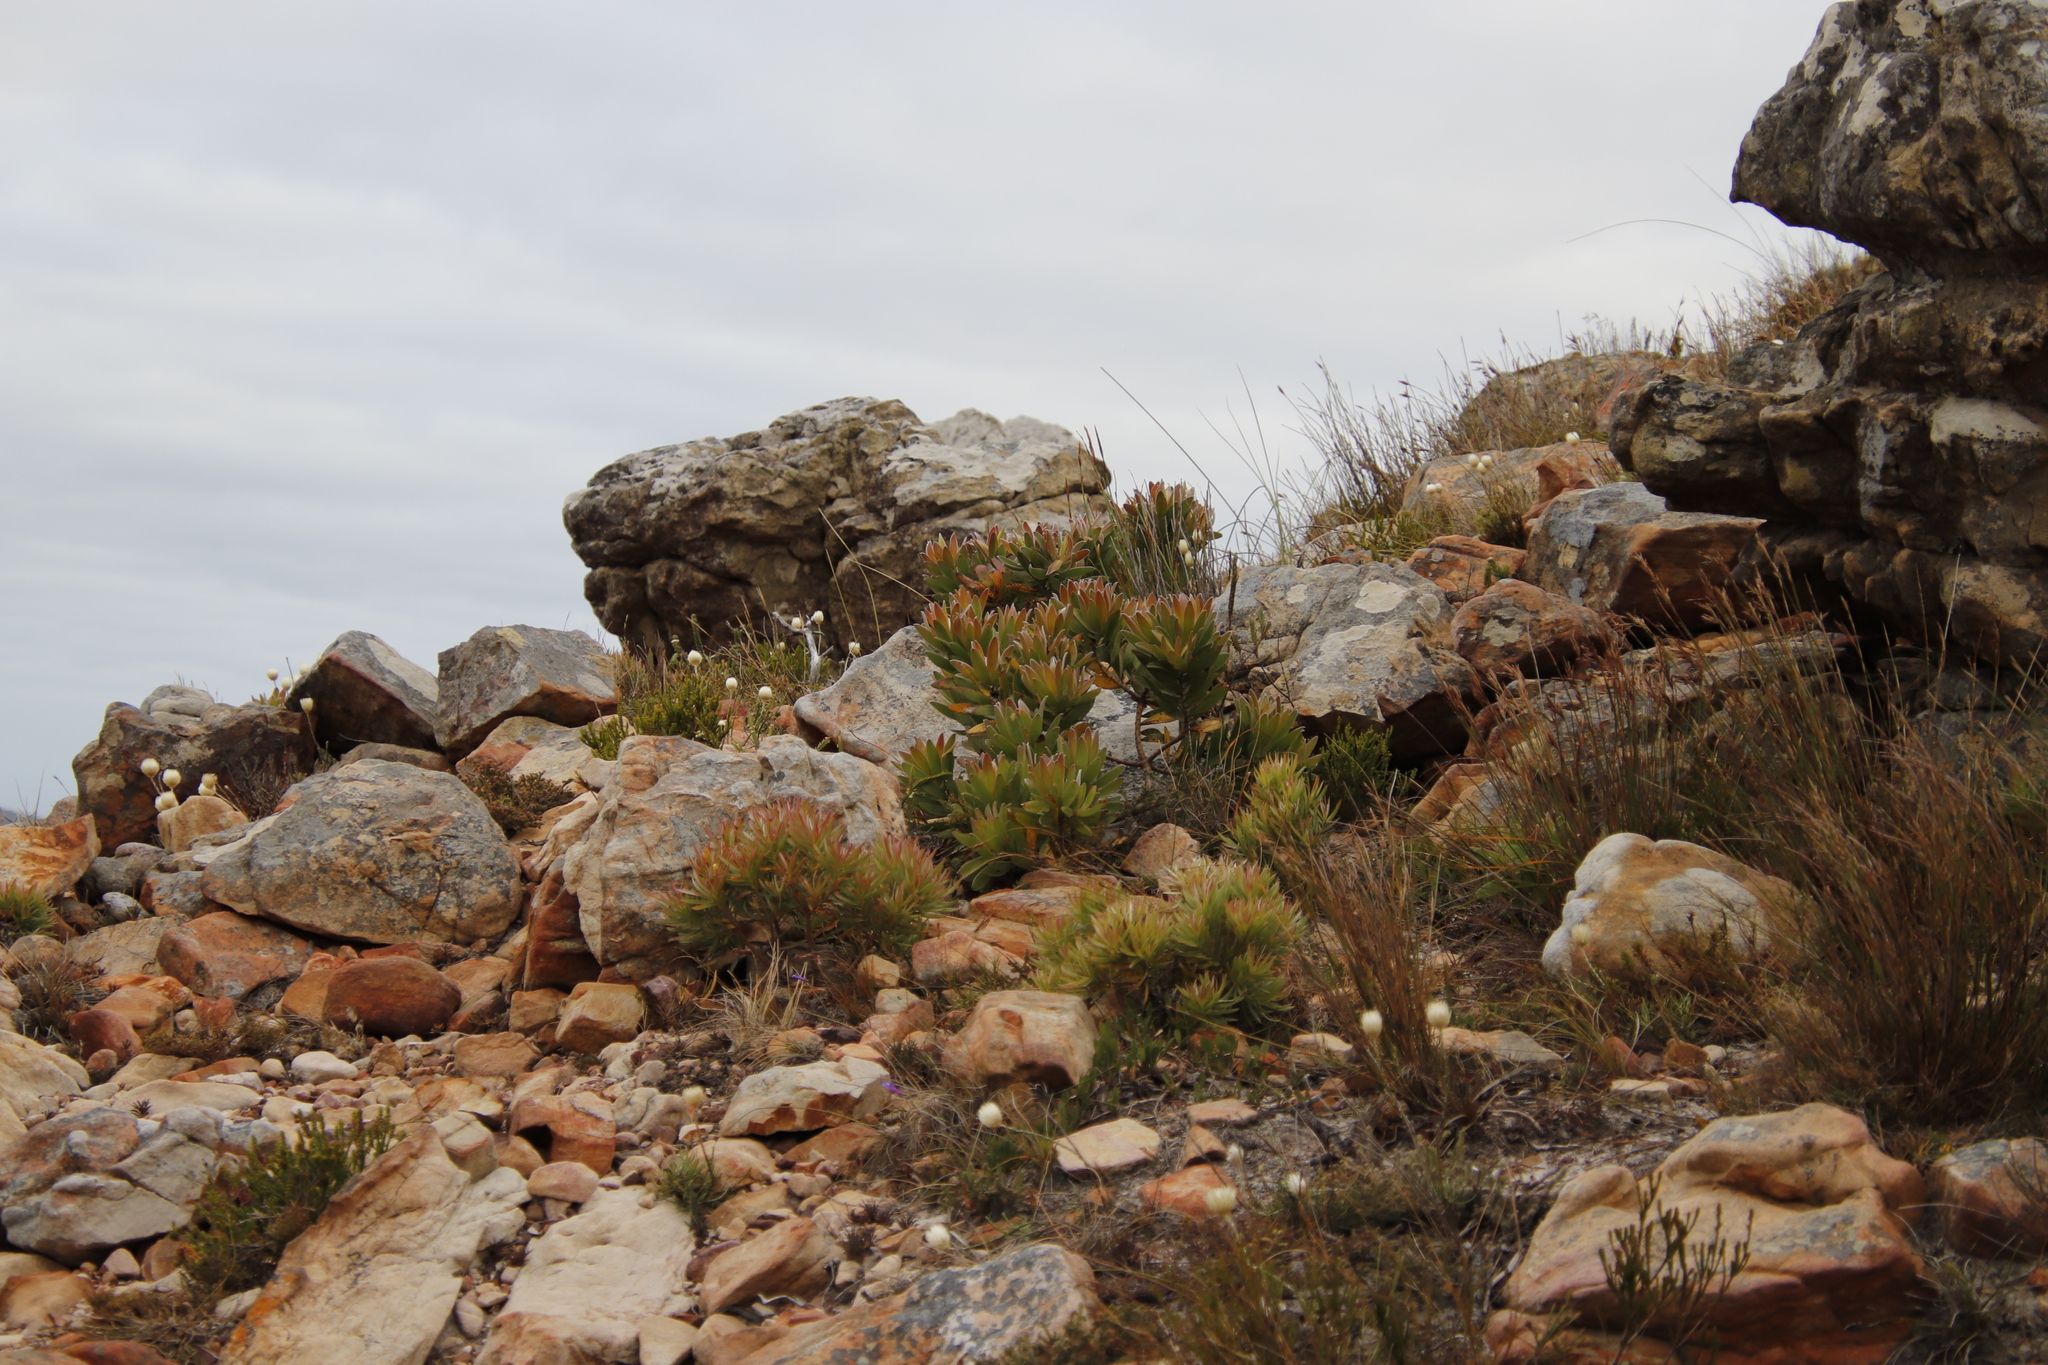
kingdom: Plantae
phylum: Tracheophyta
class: Magnoliopsida
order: Proteales
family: Proteaceae
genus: Leucadendron
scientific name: Leucadendron laureolum
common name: Golden sunshinebush
